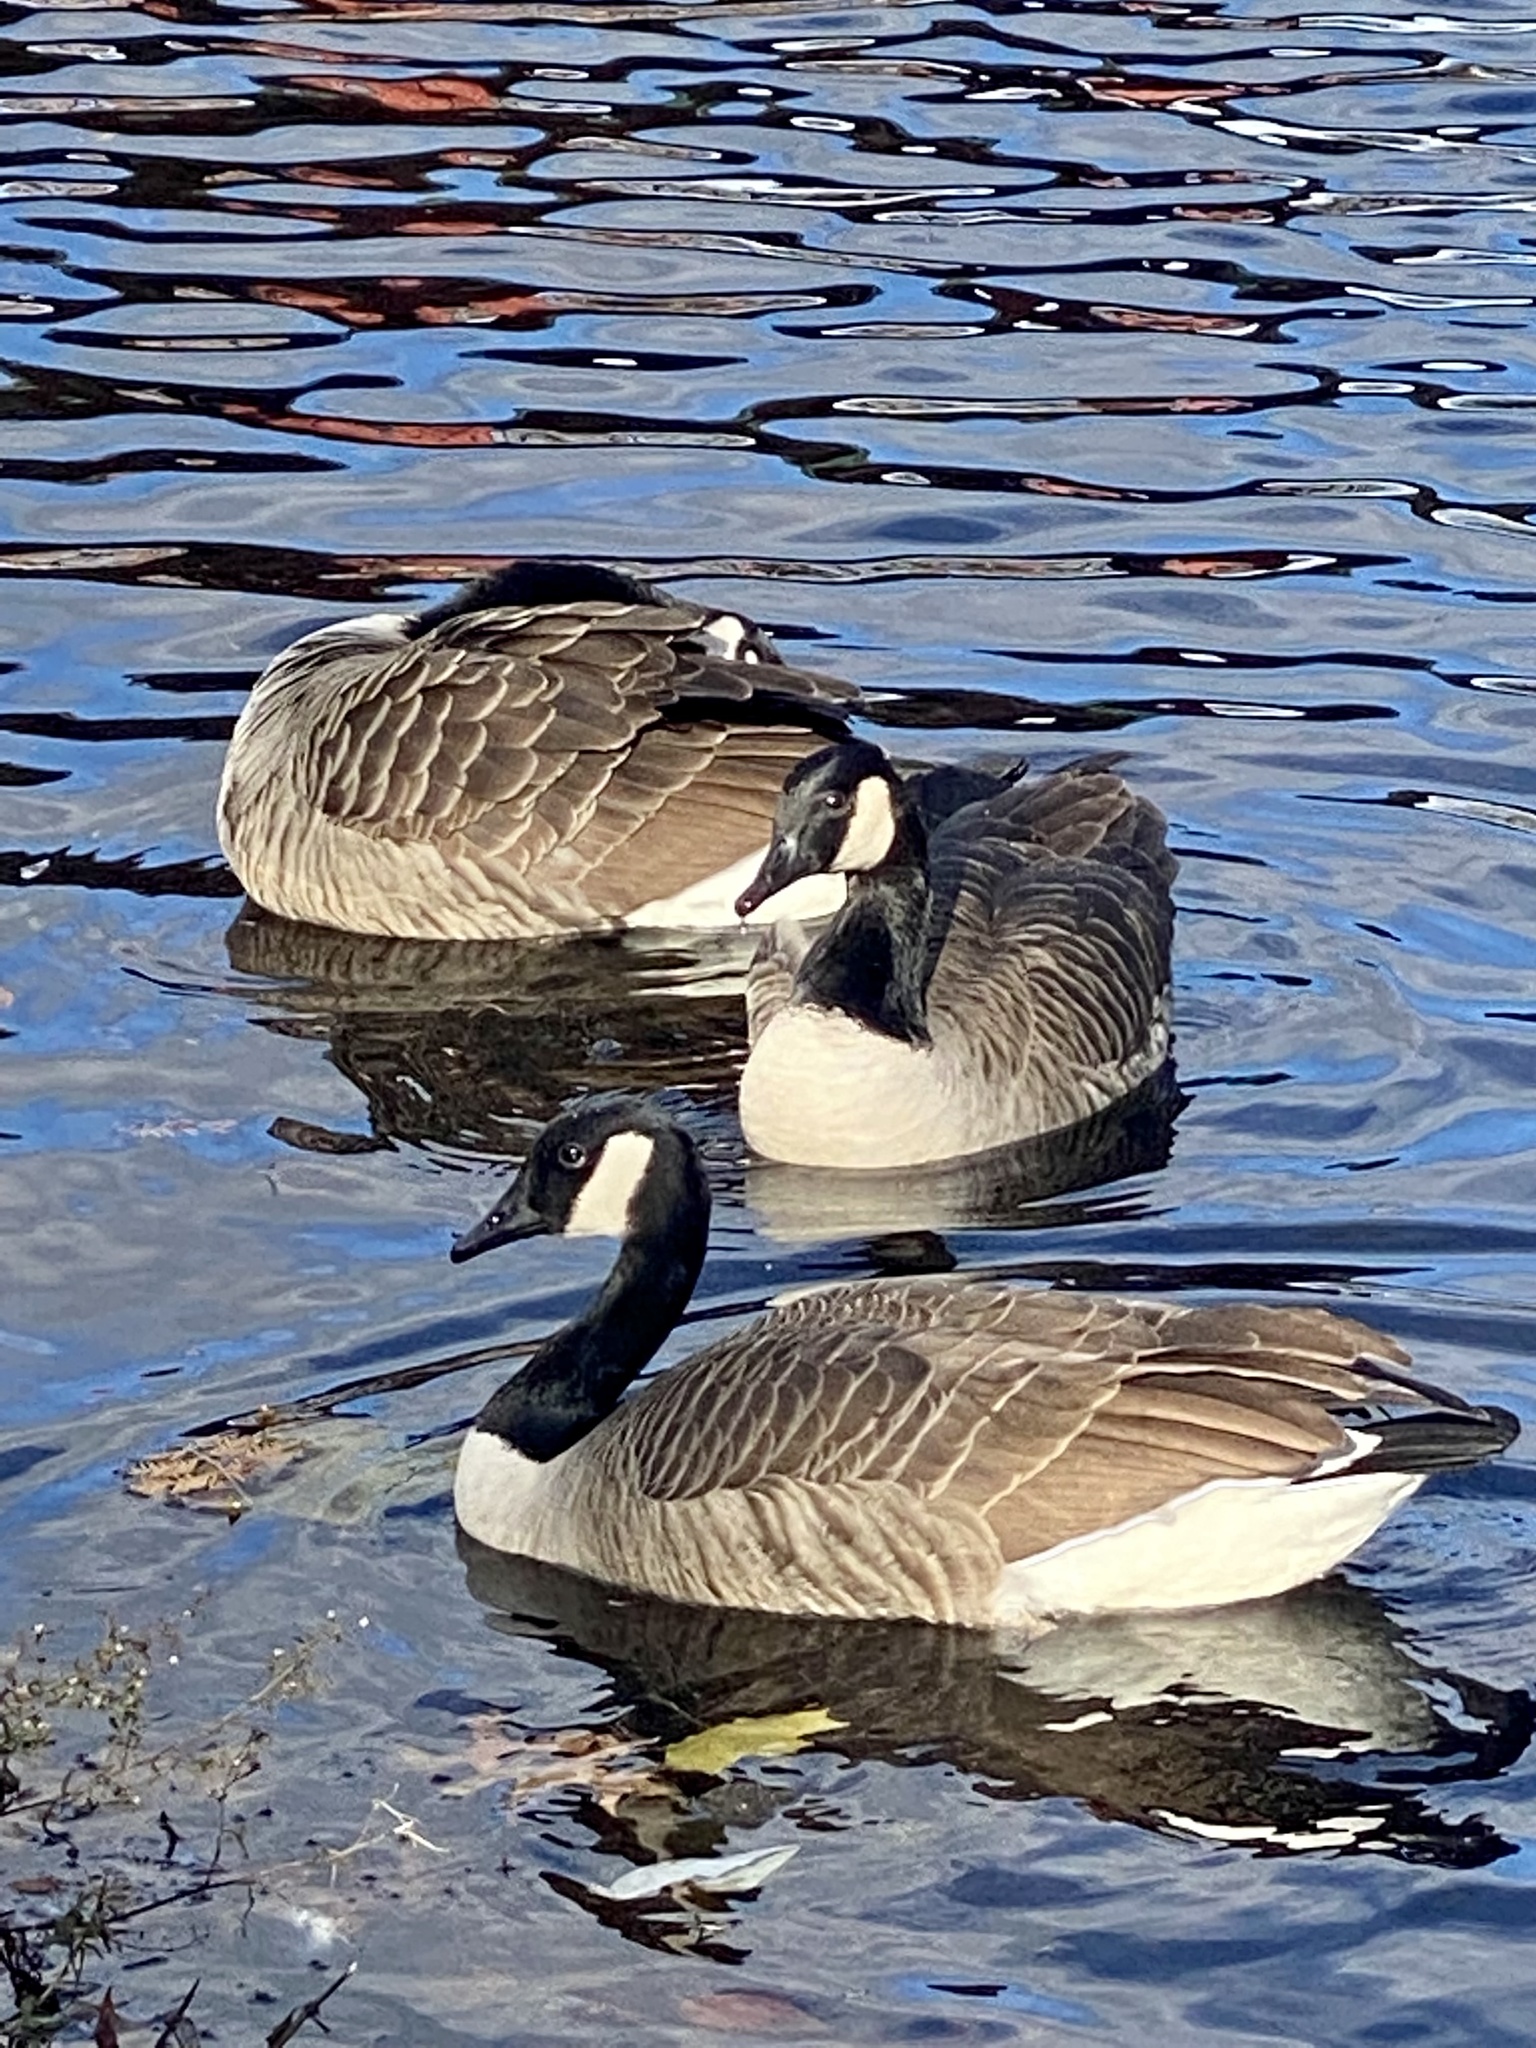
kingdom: Animalia
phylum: Chordata
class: Aves
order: Anseriformes
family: Anatidae
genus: Branta
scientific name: Branta canadensis
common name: Canada goose
